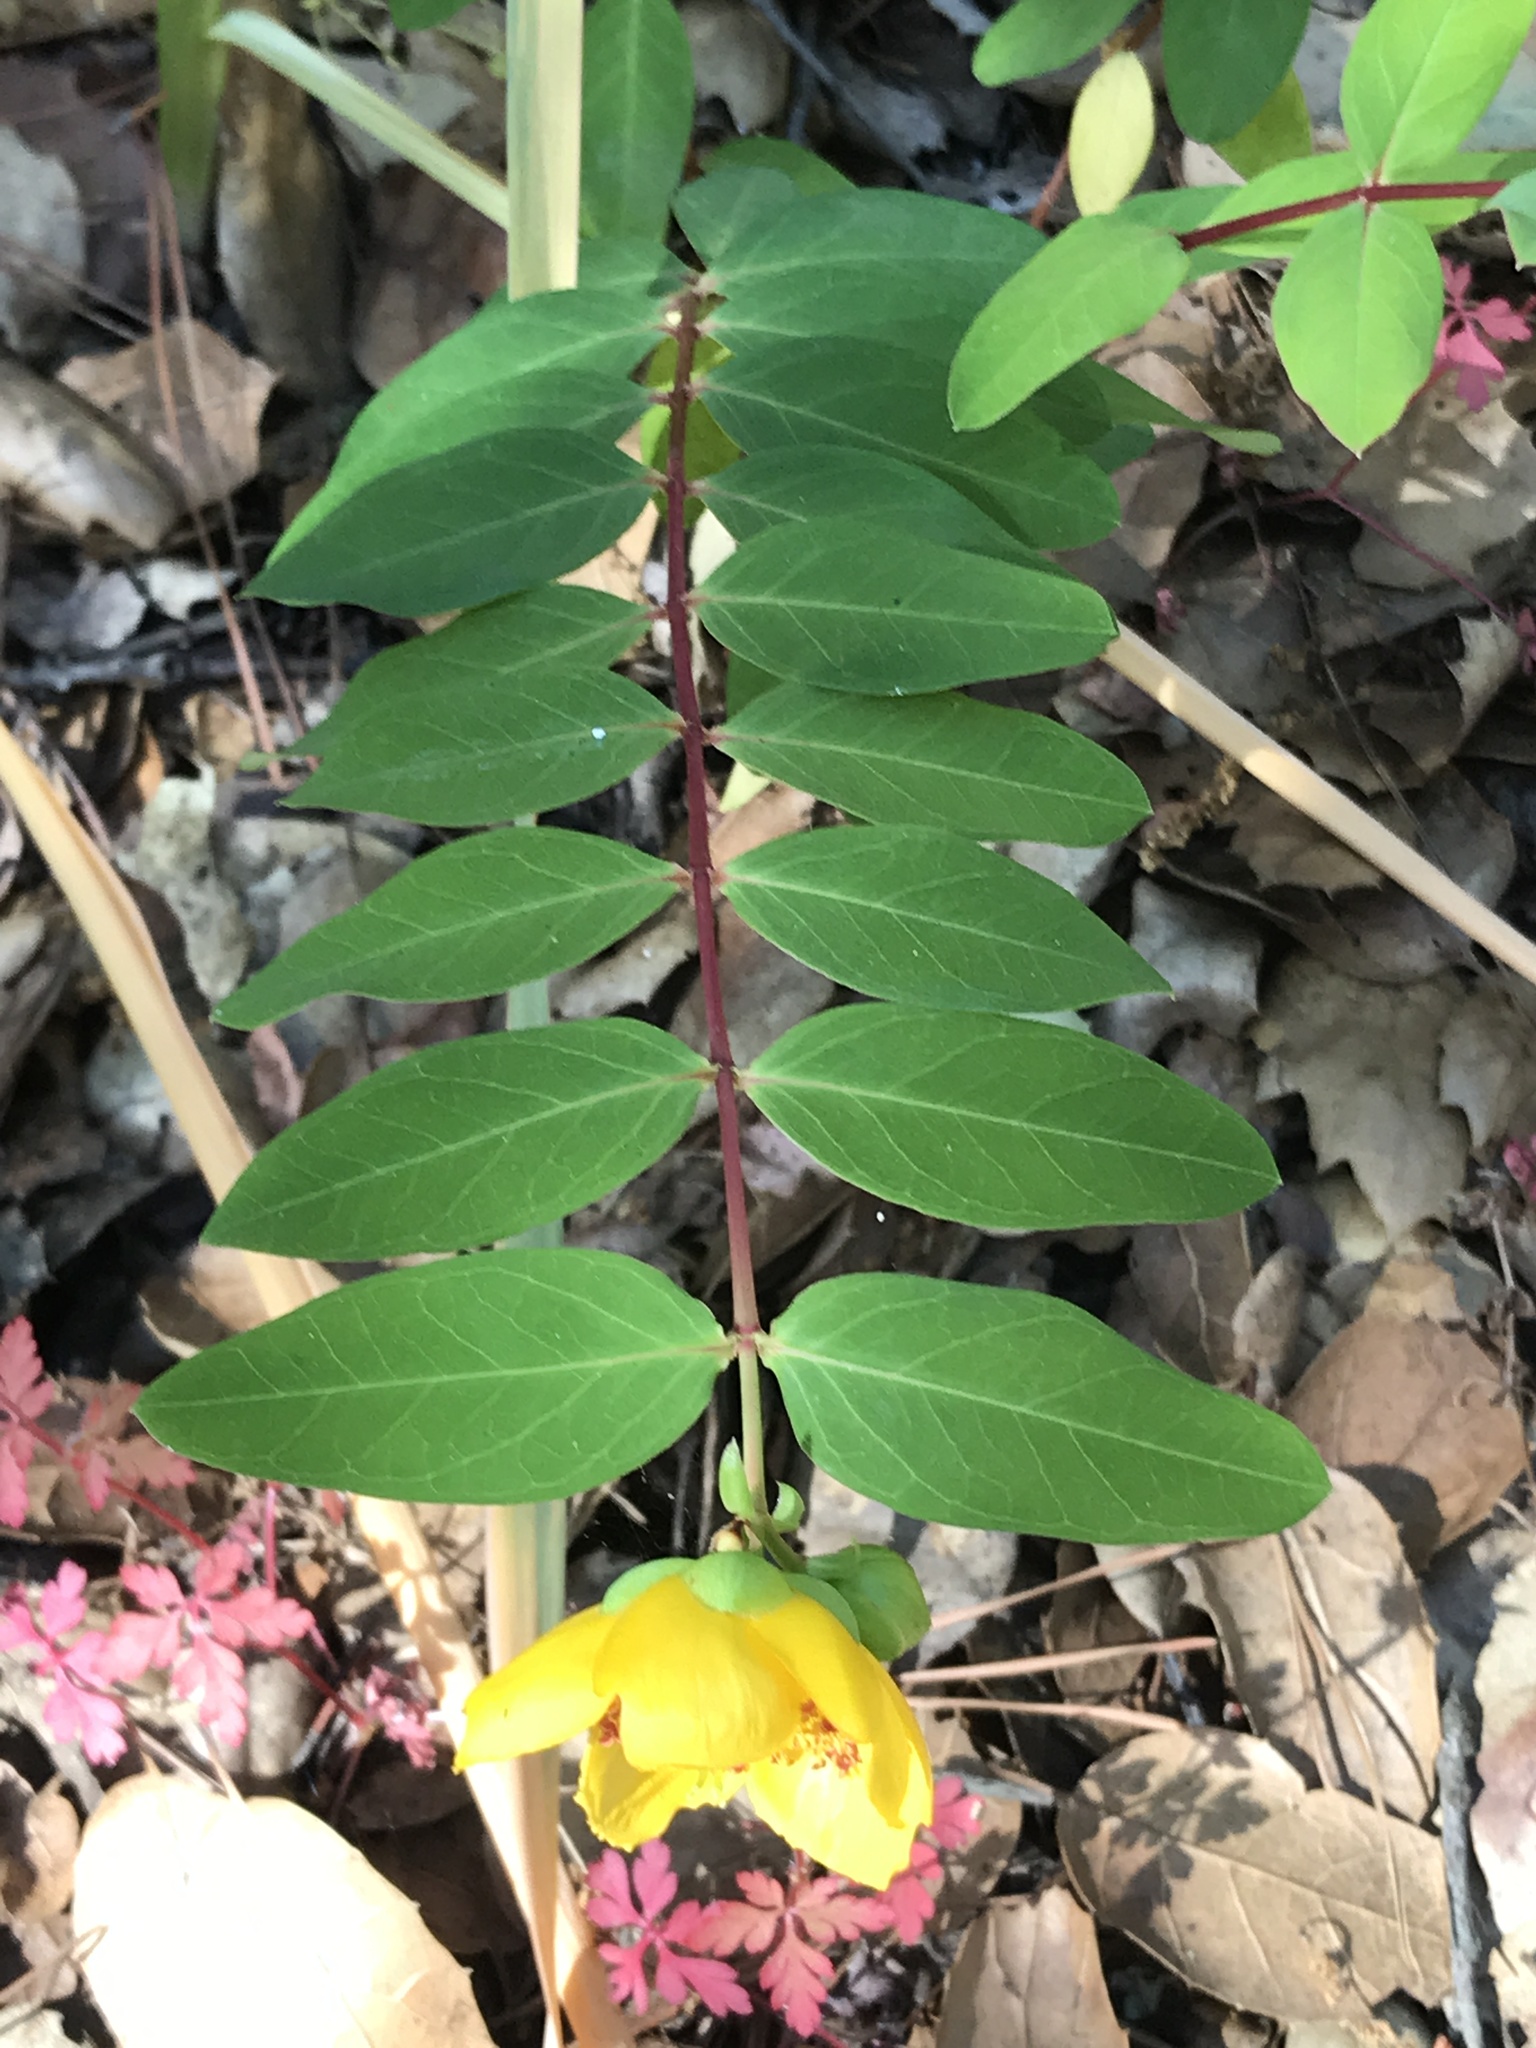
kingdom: Plantae
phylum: Tracheophyta
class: Magnoliopsida
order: Malpighiales
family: Hypericaceae
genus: Hypericum
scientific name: Hypericum calycinum
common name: Rose-of-sharon
